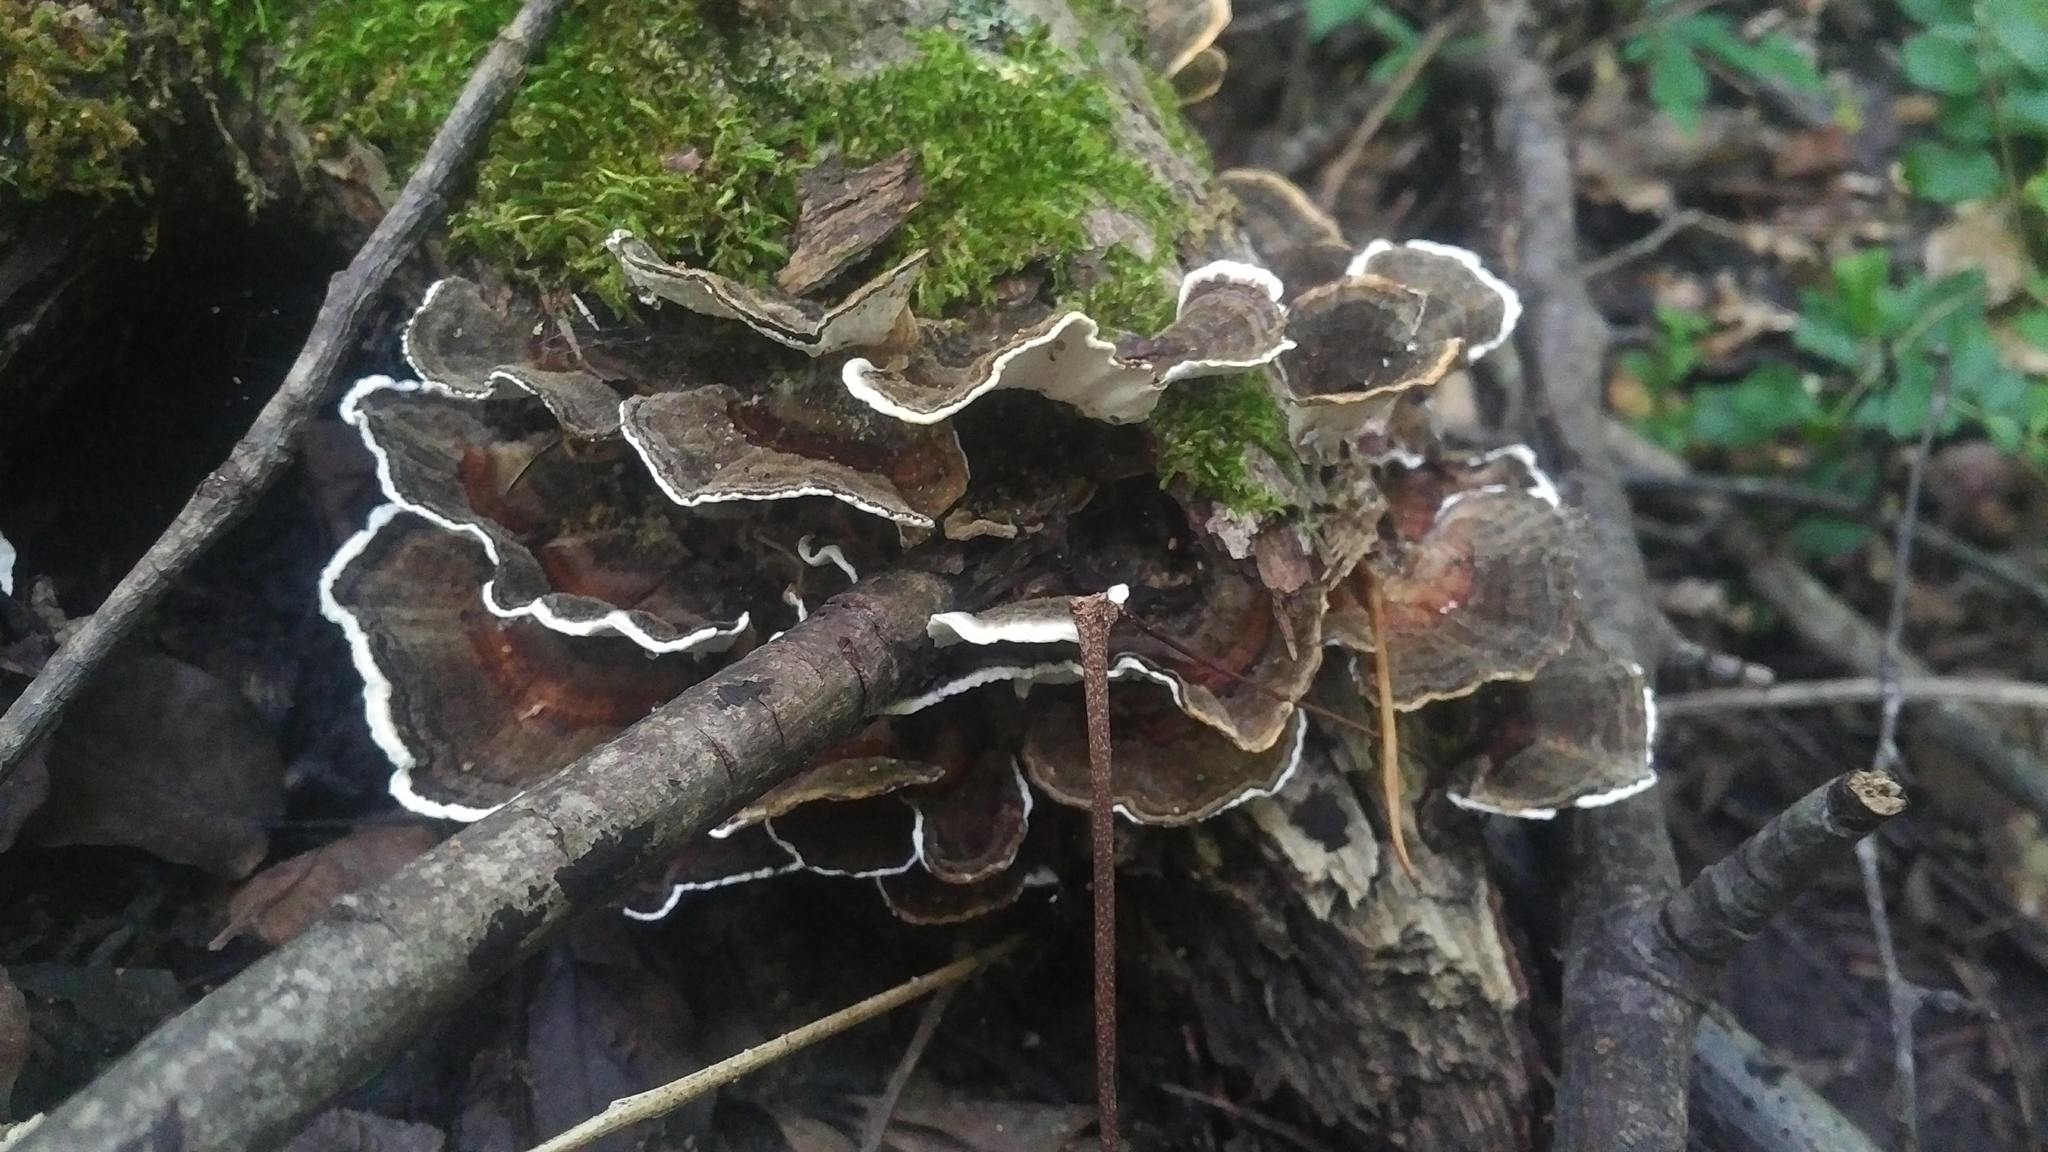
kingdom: Fungi
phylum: Basidiomycota
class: Agaricomycetes
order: Polyporales
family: Polyporaceae
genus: Trametes
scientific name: Trametes versicolor
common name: Turkeytail
